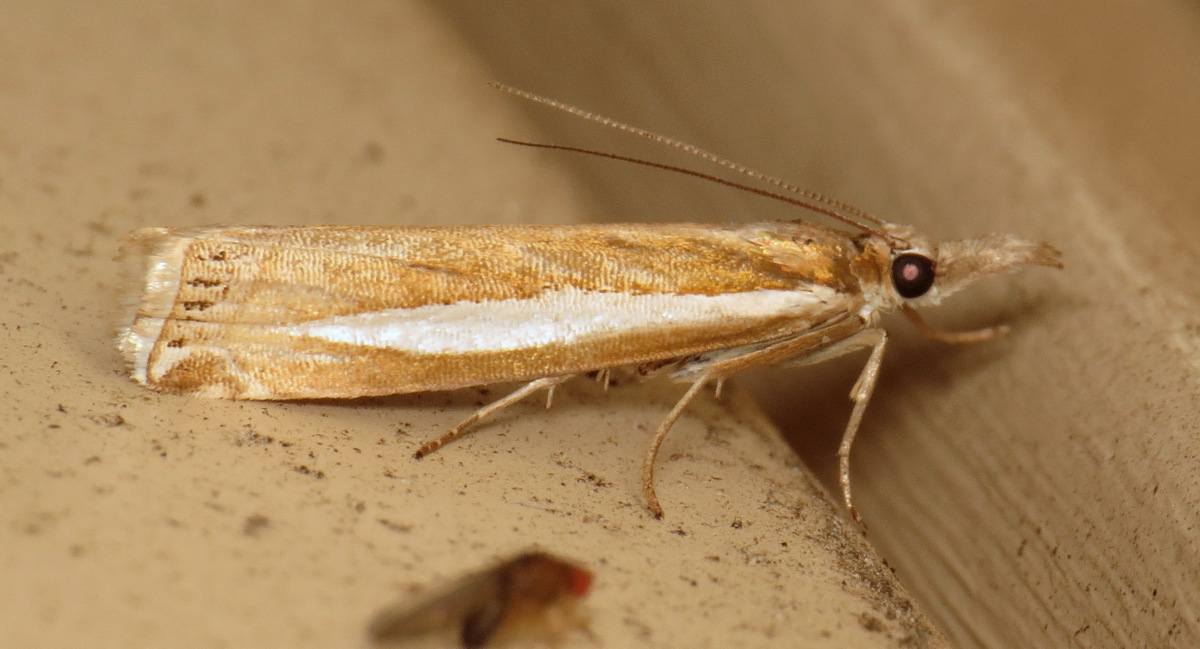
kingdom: Animalia
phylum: Arthropoda
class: Insecta
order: Lepidoptera
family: Crambidae
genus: Crambus
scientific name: Crambus praefectellus
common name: Common grass-veneer
